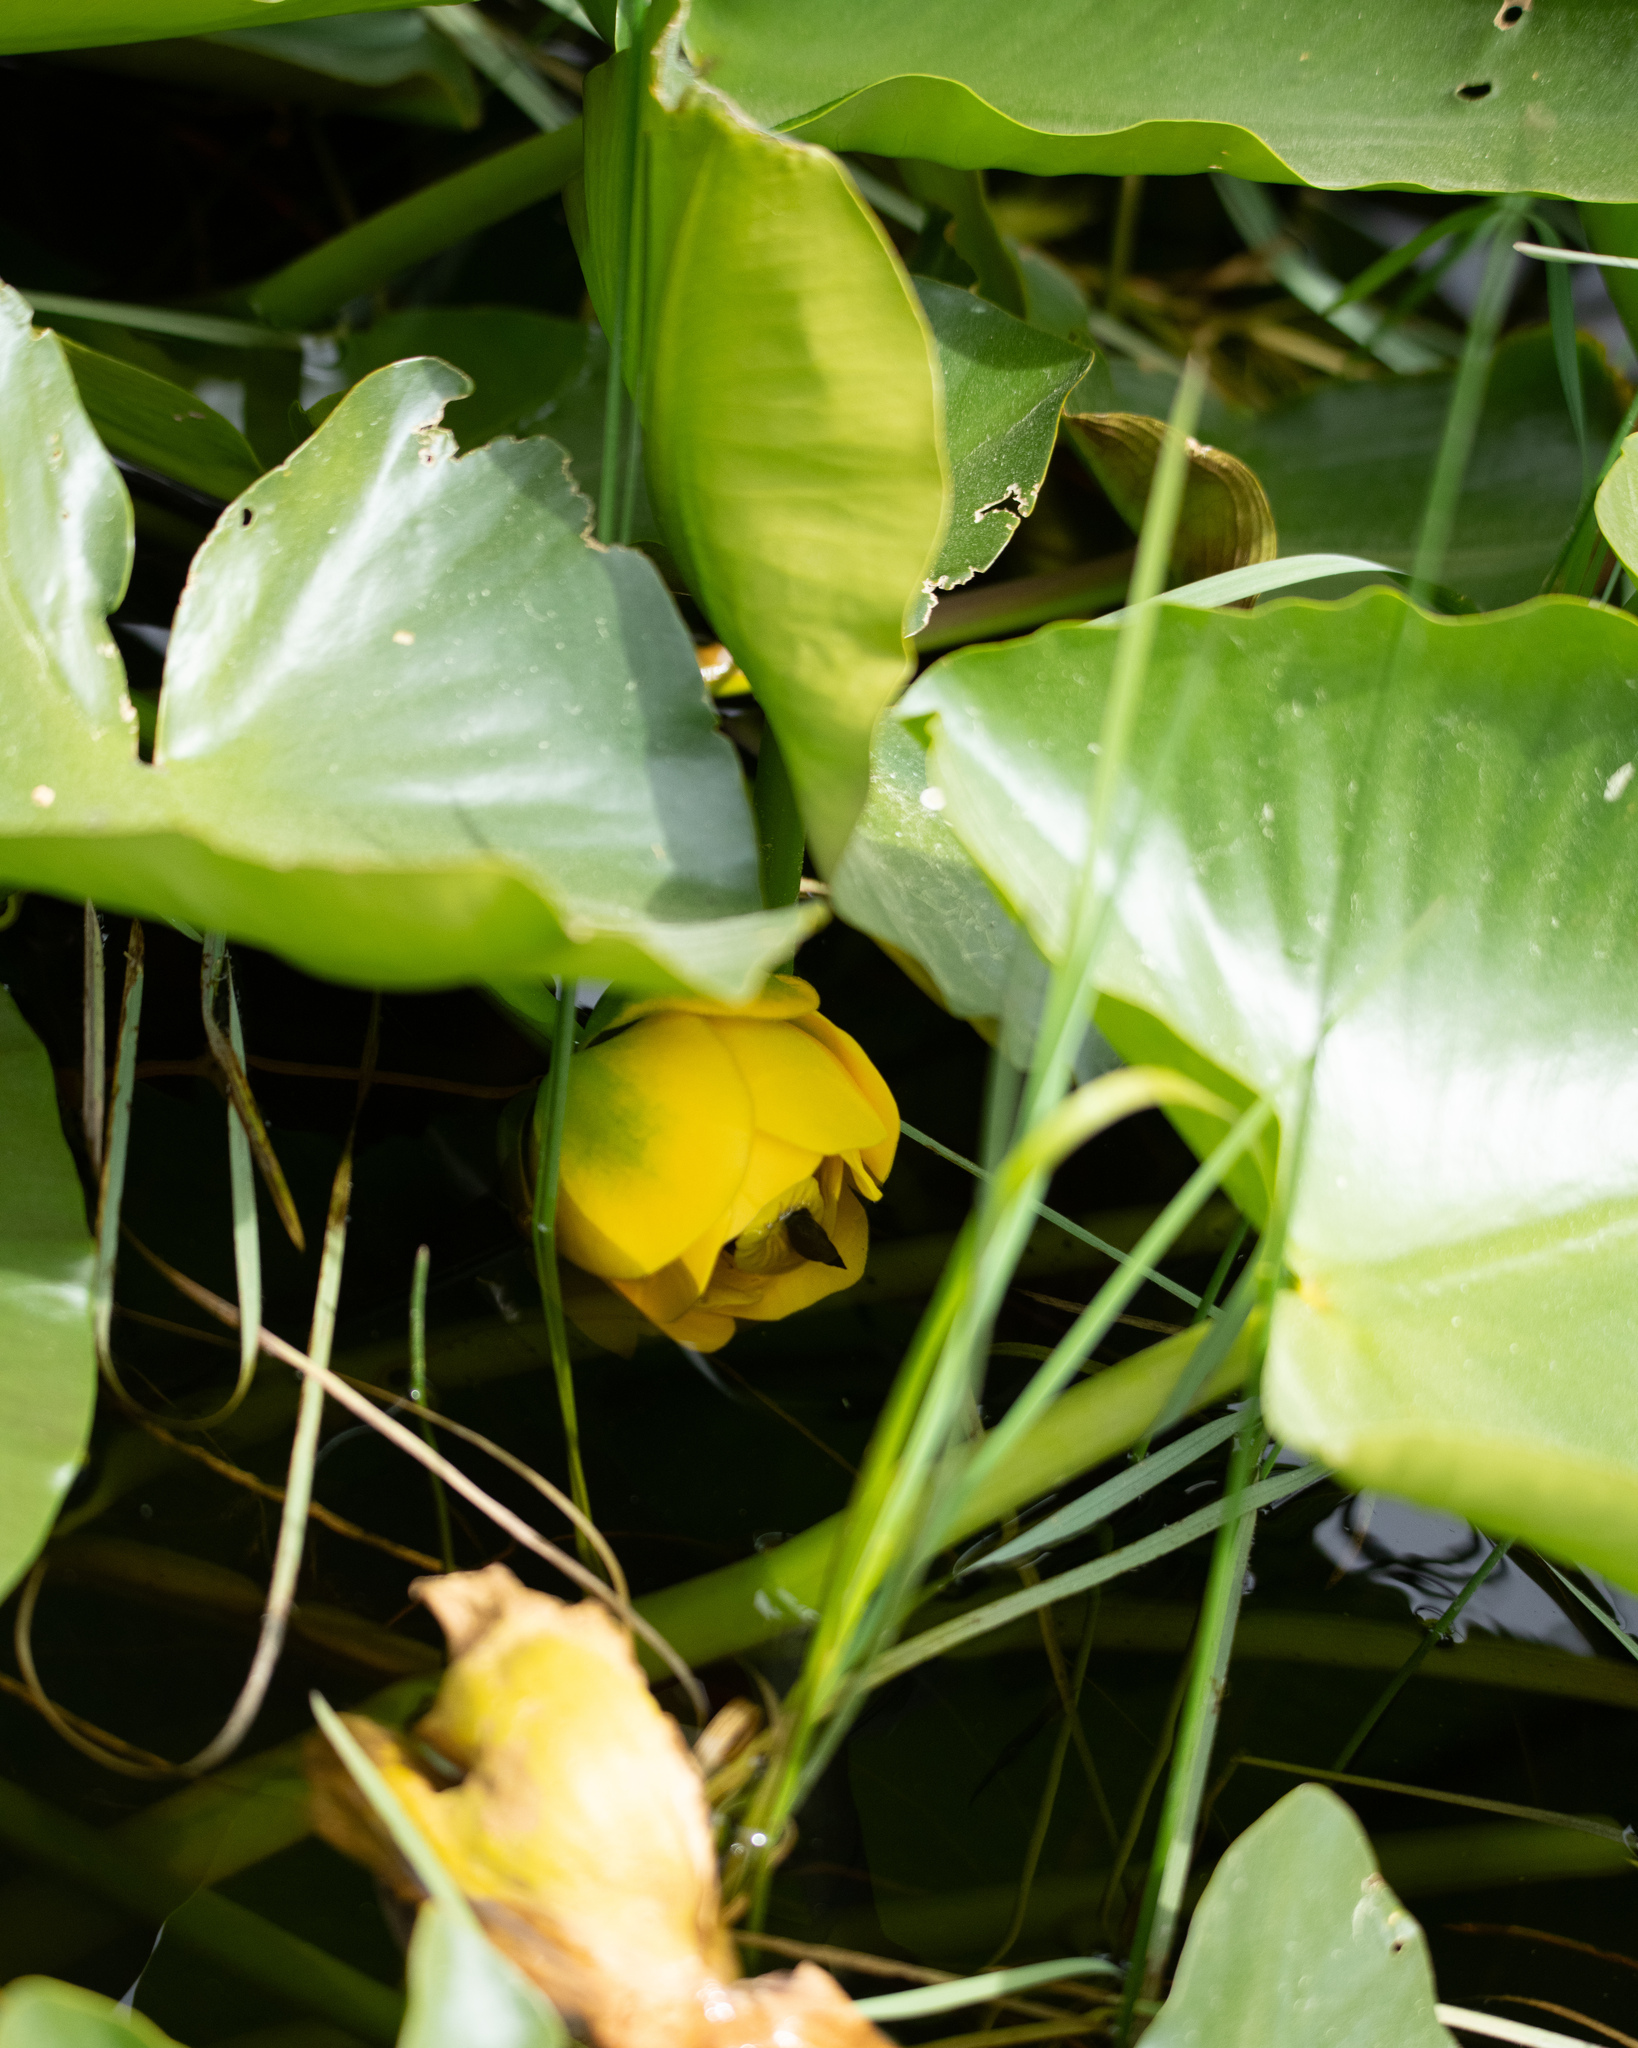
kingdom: Plantae
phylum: Tracheophyta
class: Magnoliopsida
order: Nymphaeales
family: Nymphaeaceae
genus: Nuphar
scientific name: Nuphar polysepala
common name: Rocky mountain cow-lily
